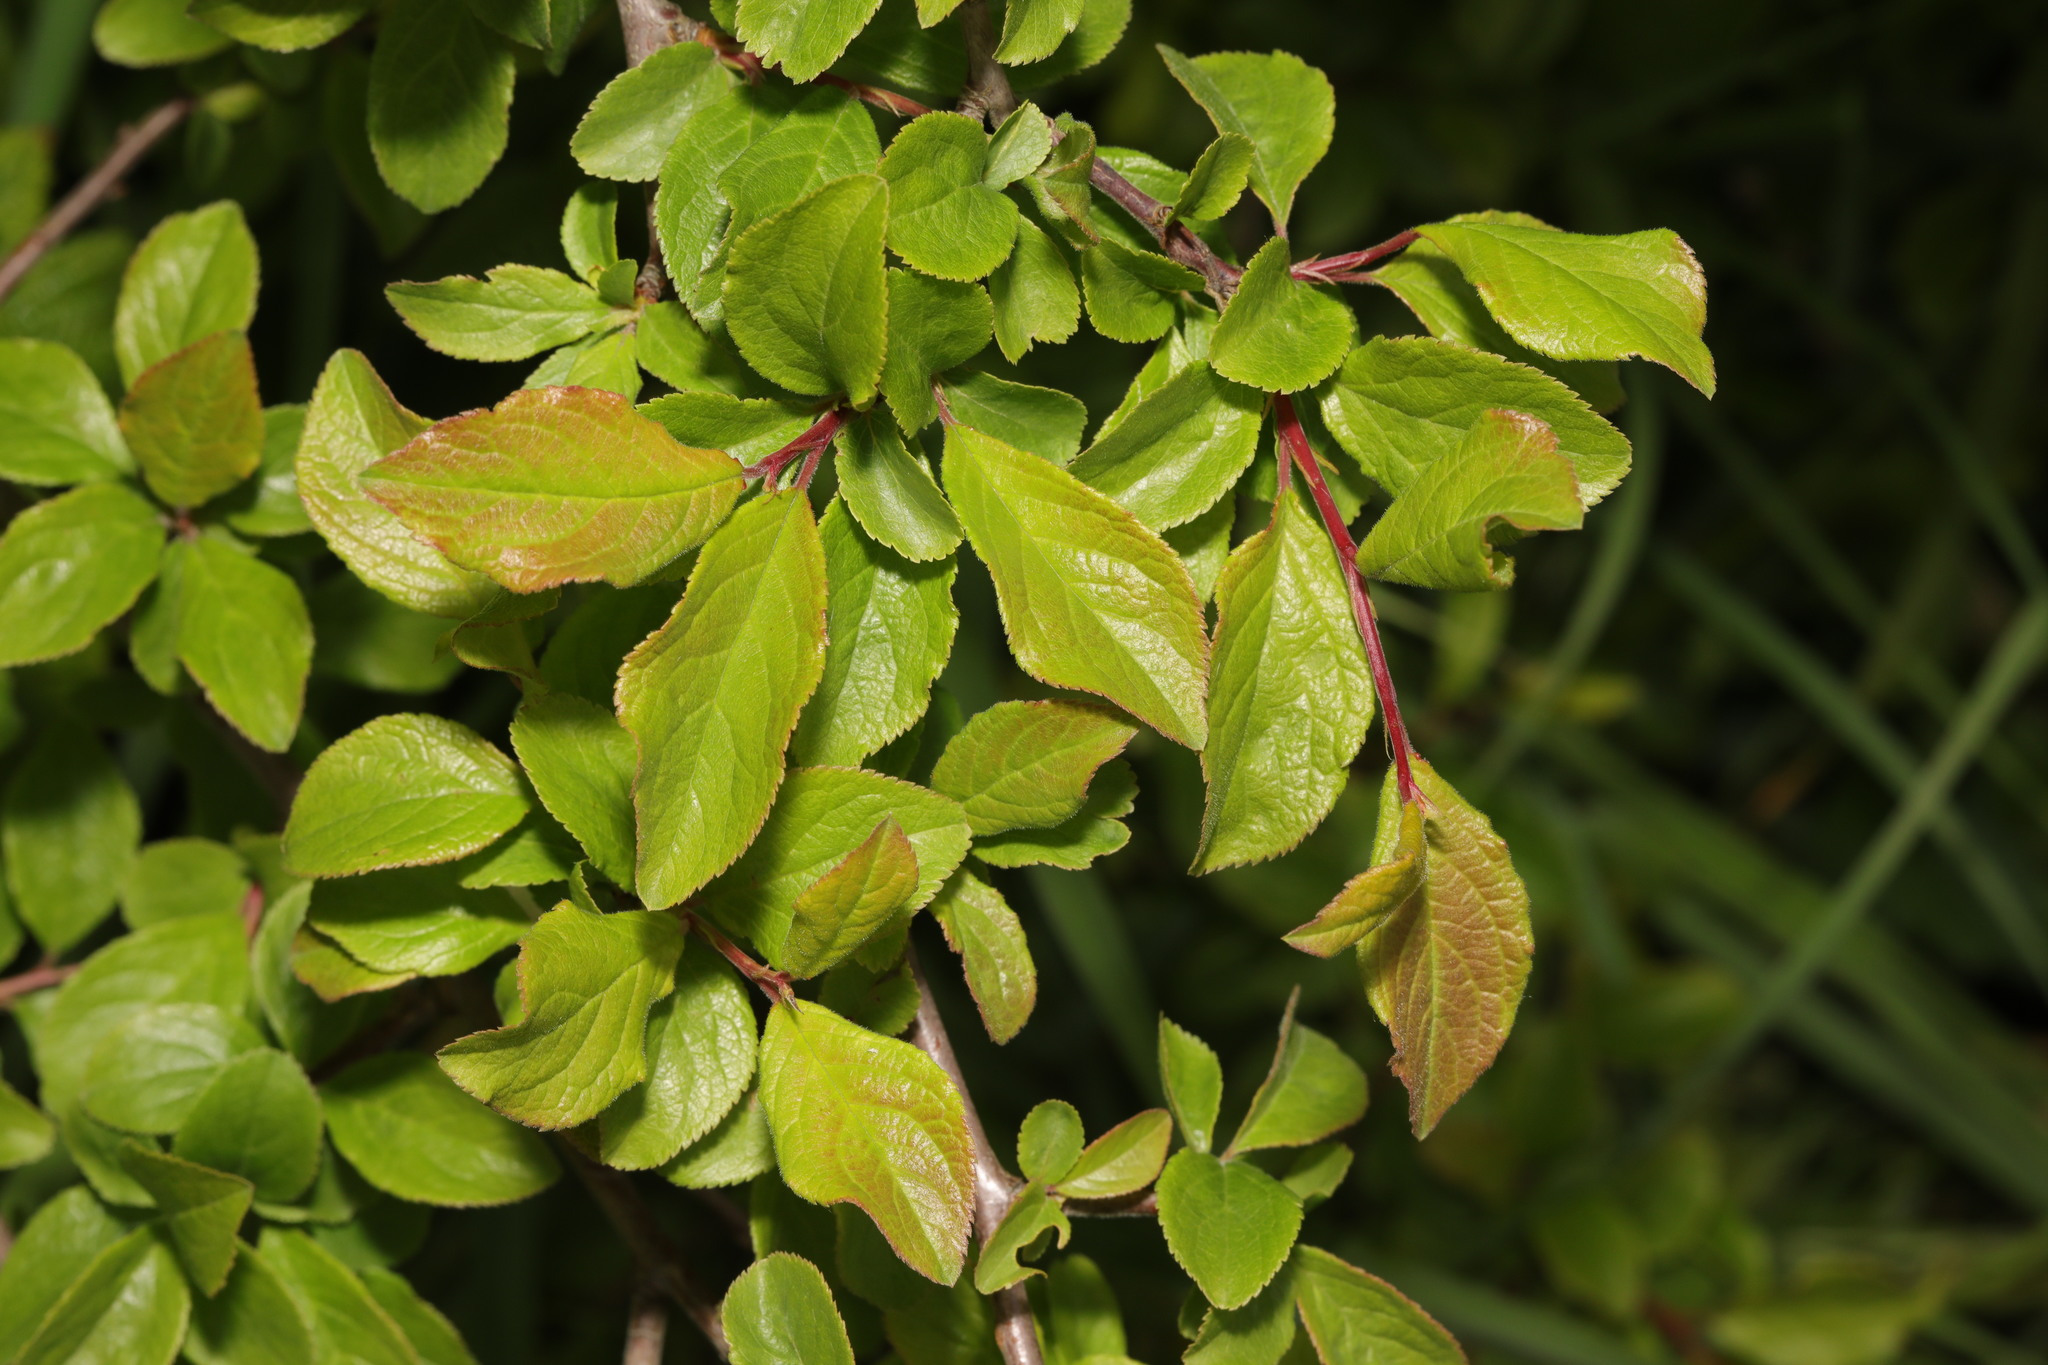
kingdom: Plantae
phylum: Tracheophyta
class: Magnoliopsida
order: Rosales
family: Rosaceae
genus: Prunus
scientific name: Prunus spinosa
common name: Blackthorn
